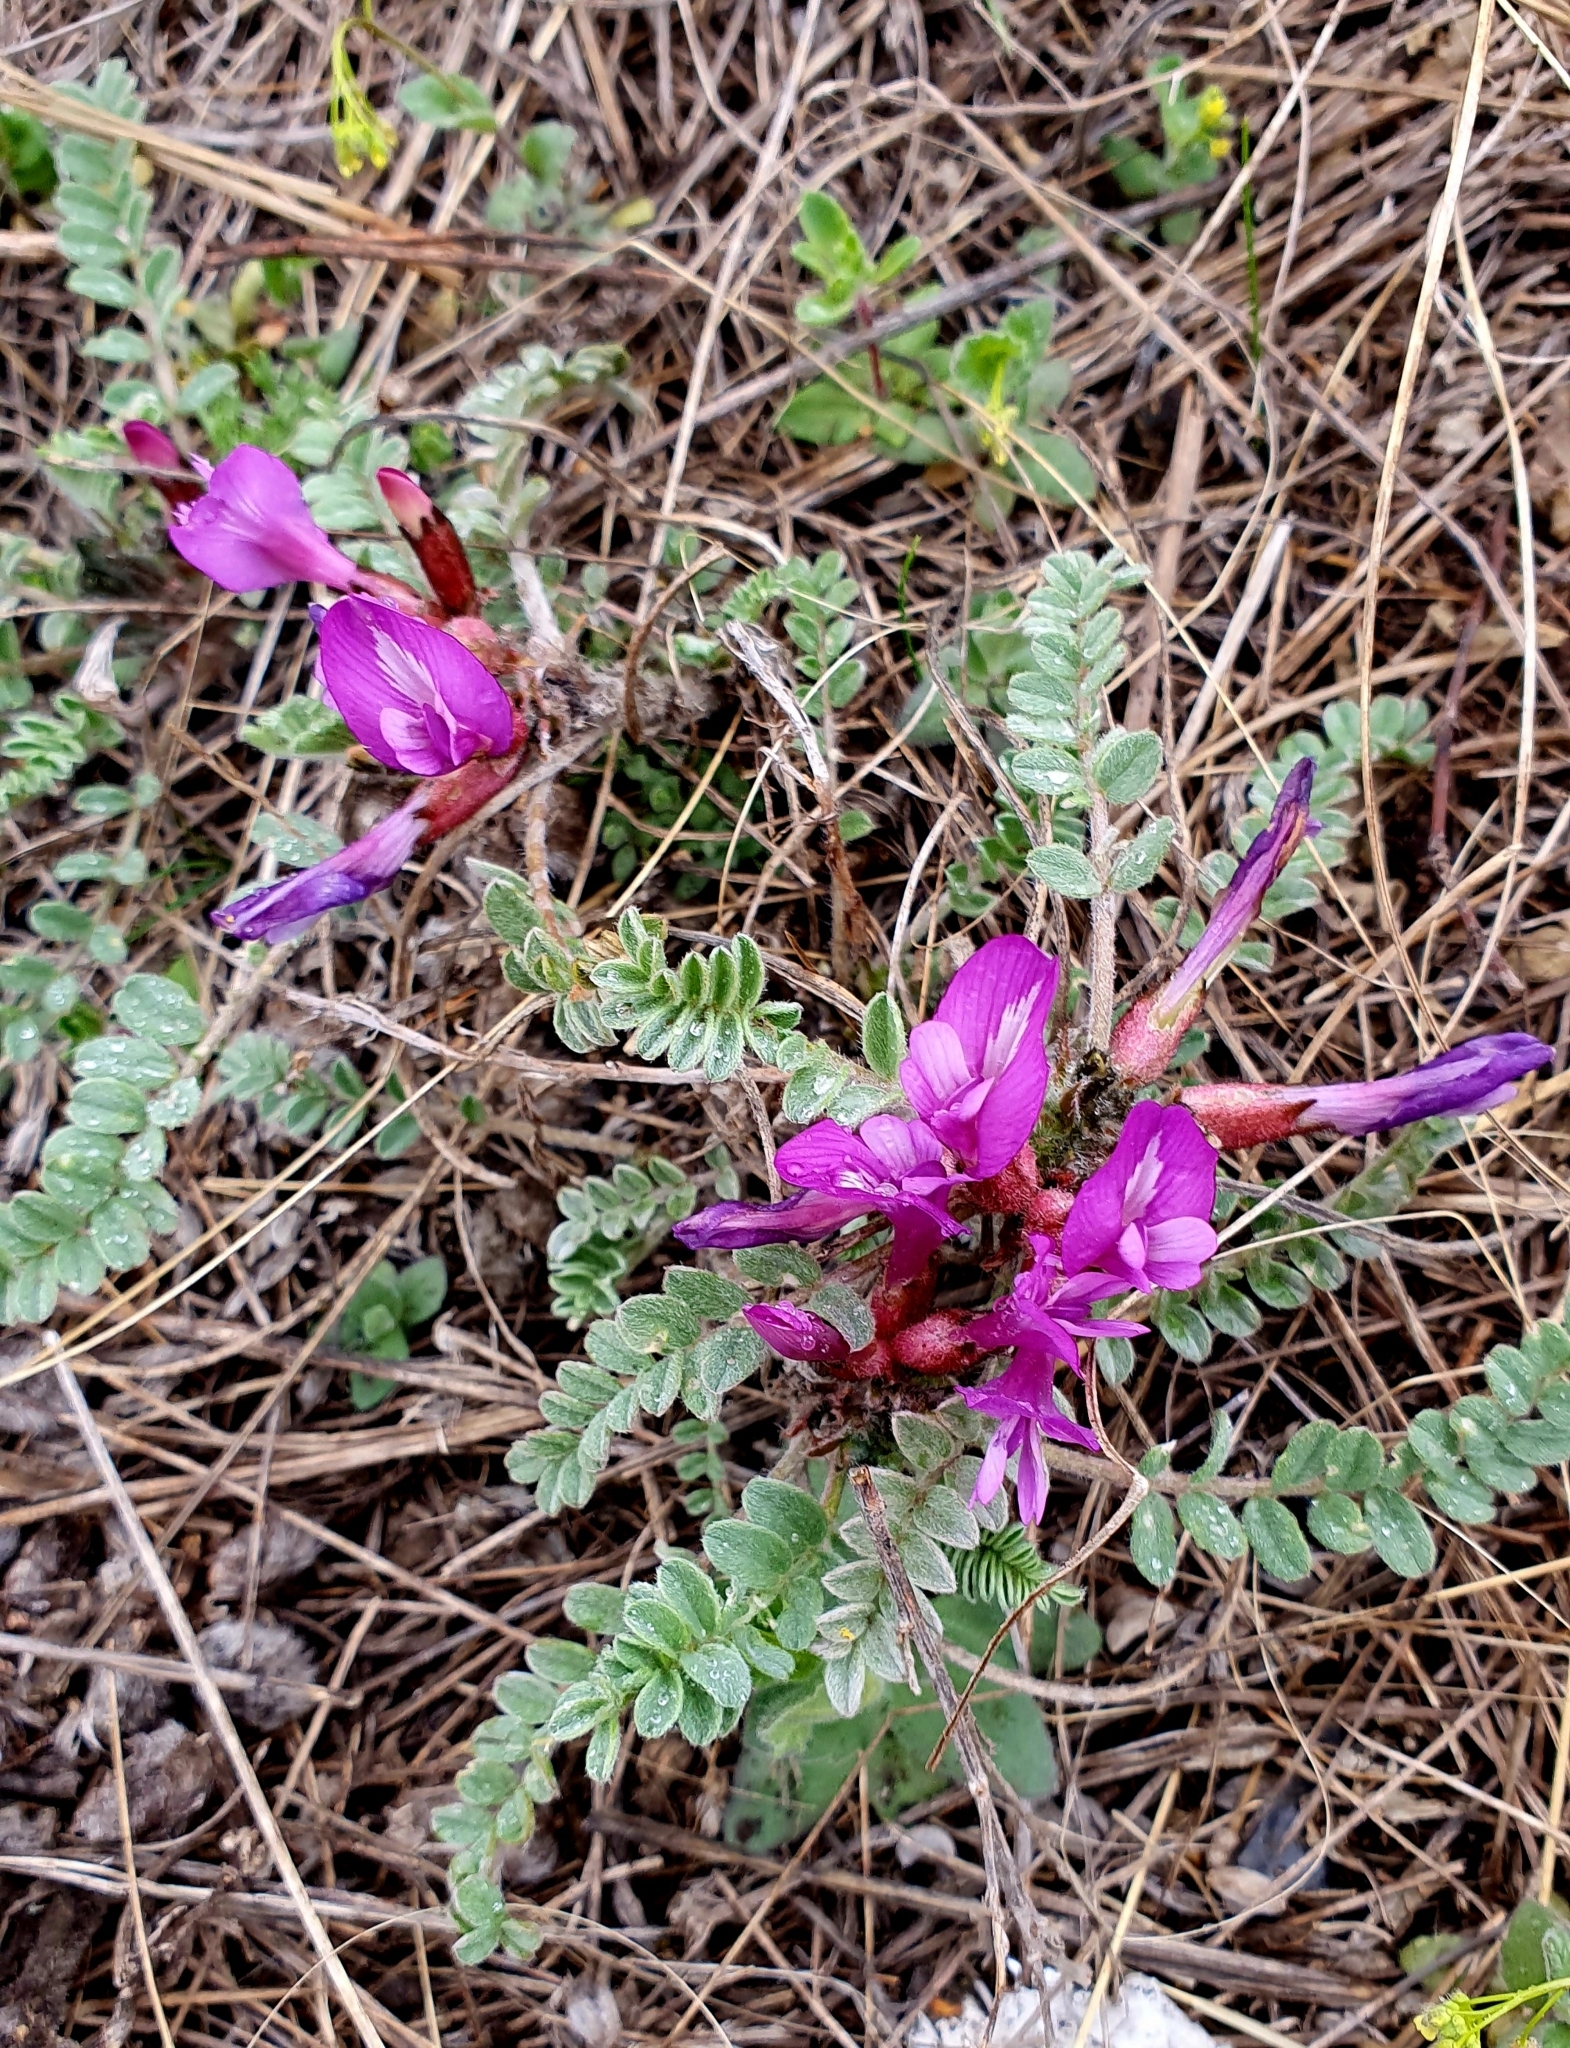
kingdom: Plantae
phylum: Tracheophyta
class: Magnoliopsida
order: Fabales
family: Fabaceae
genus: Astragalus
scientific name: Astragalus testiculatus
